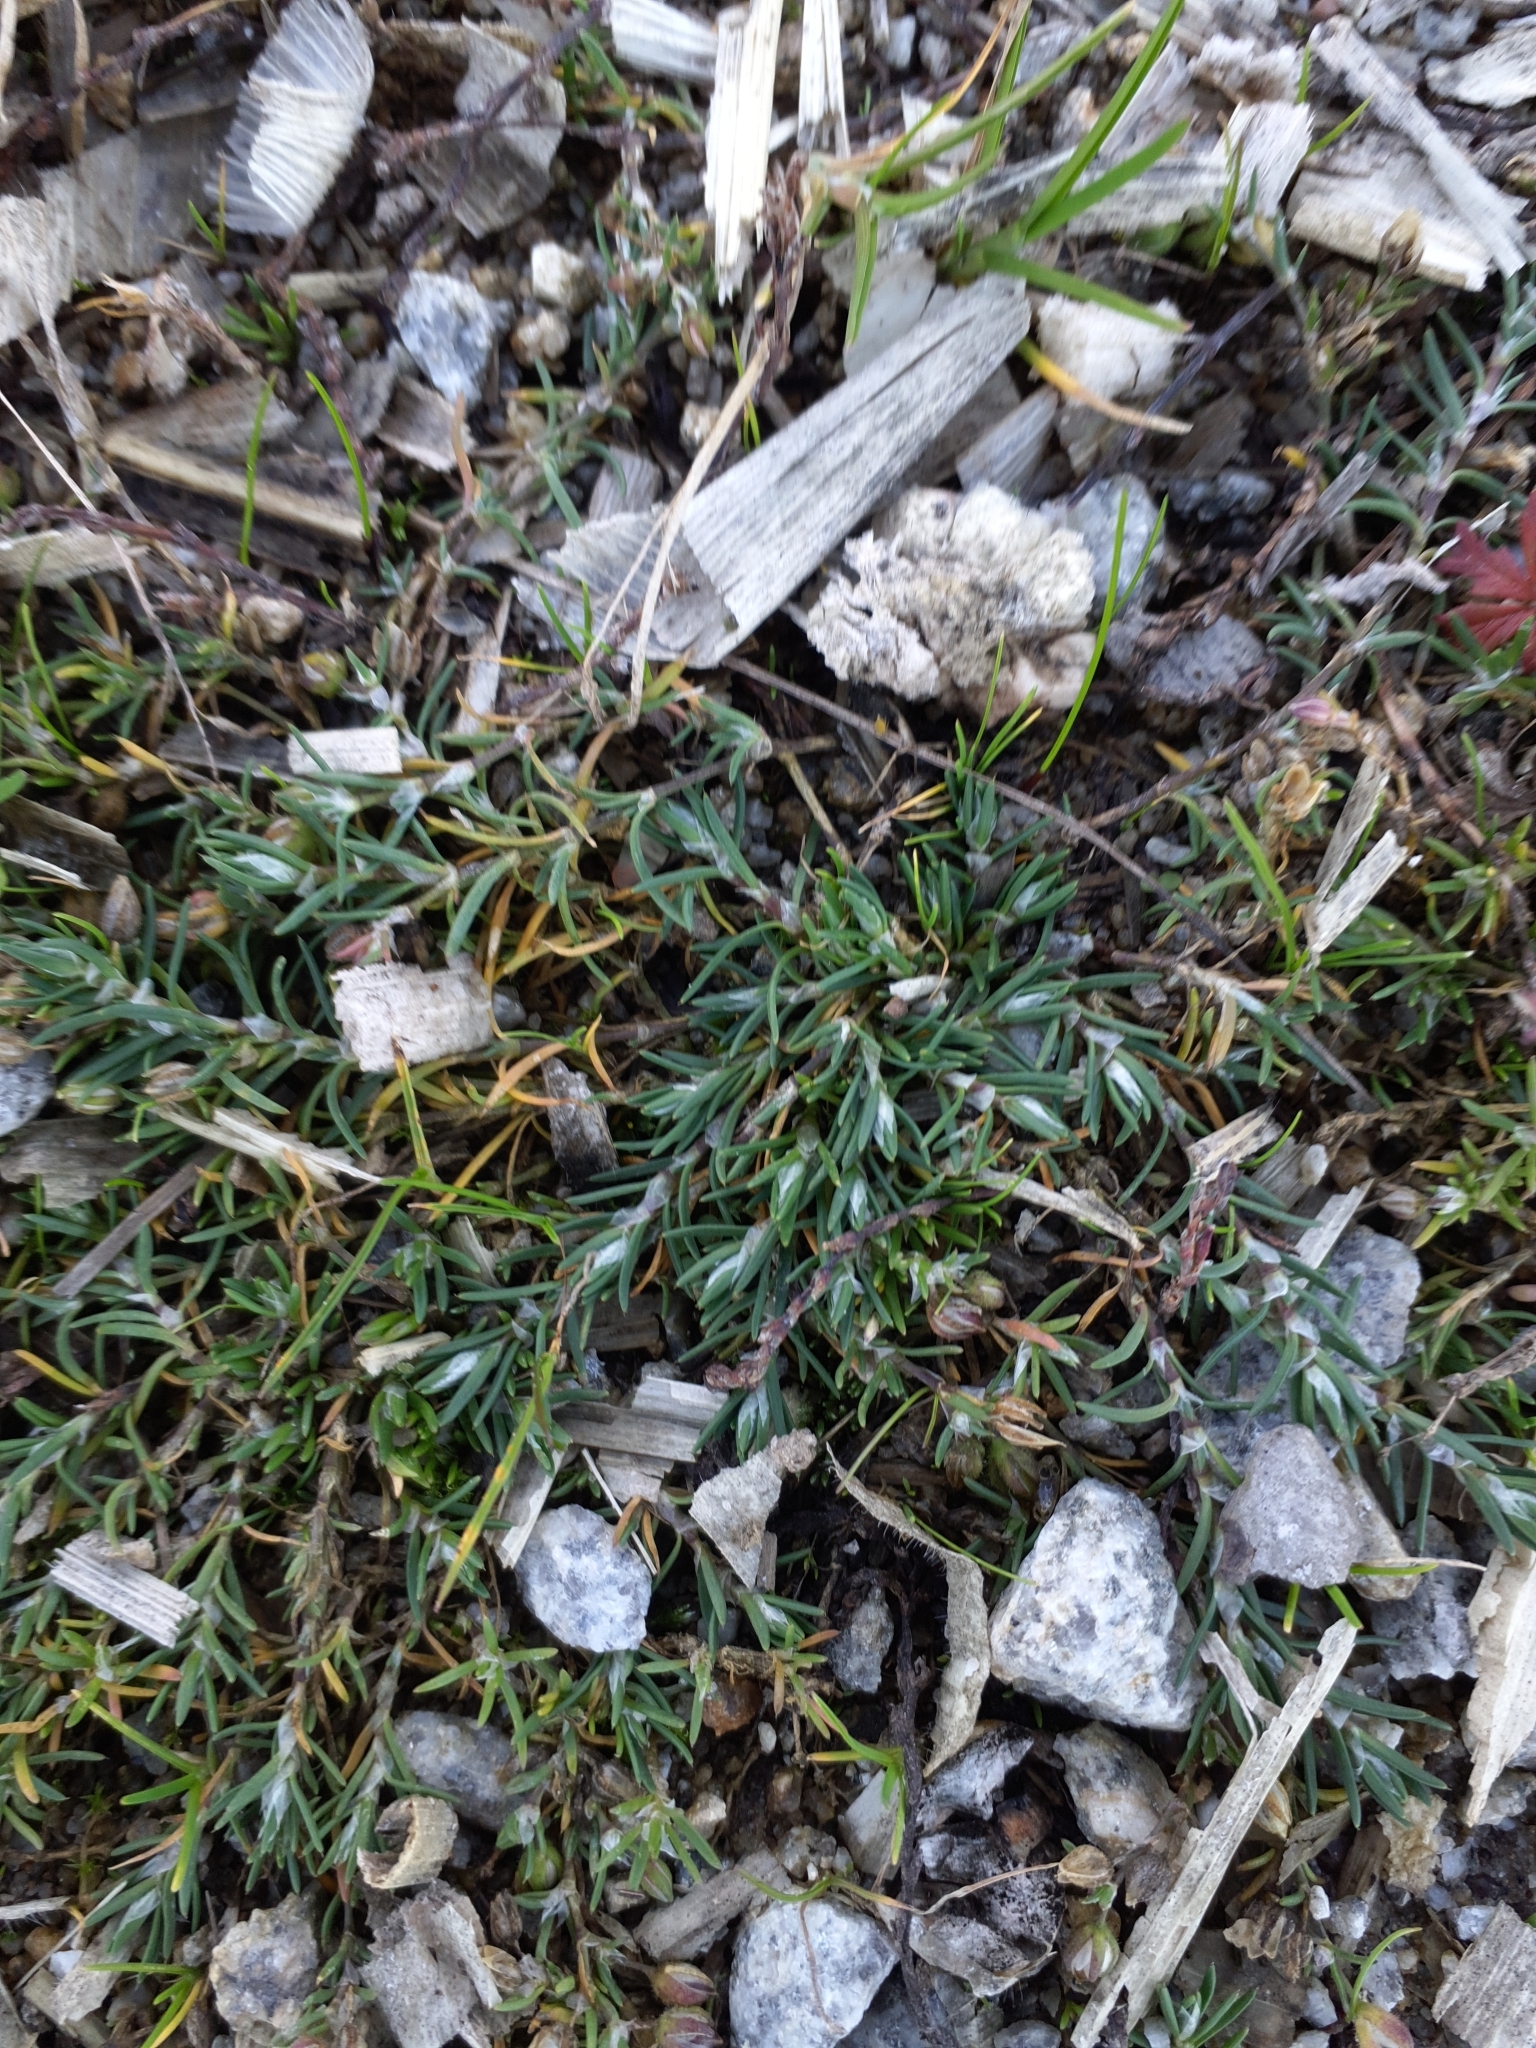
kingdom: Plantae
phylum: Tracheophyta
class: Magnoliopsida
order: Caryophyllales
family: Caryophyllaceae
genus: Spergularia
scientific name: Spergularia rubra
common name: Red sand-spurrey
